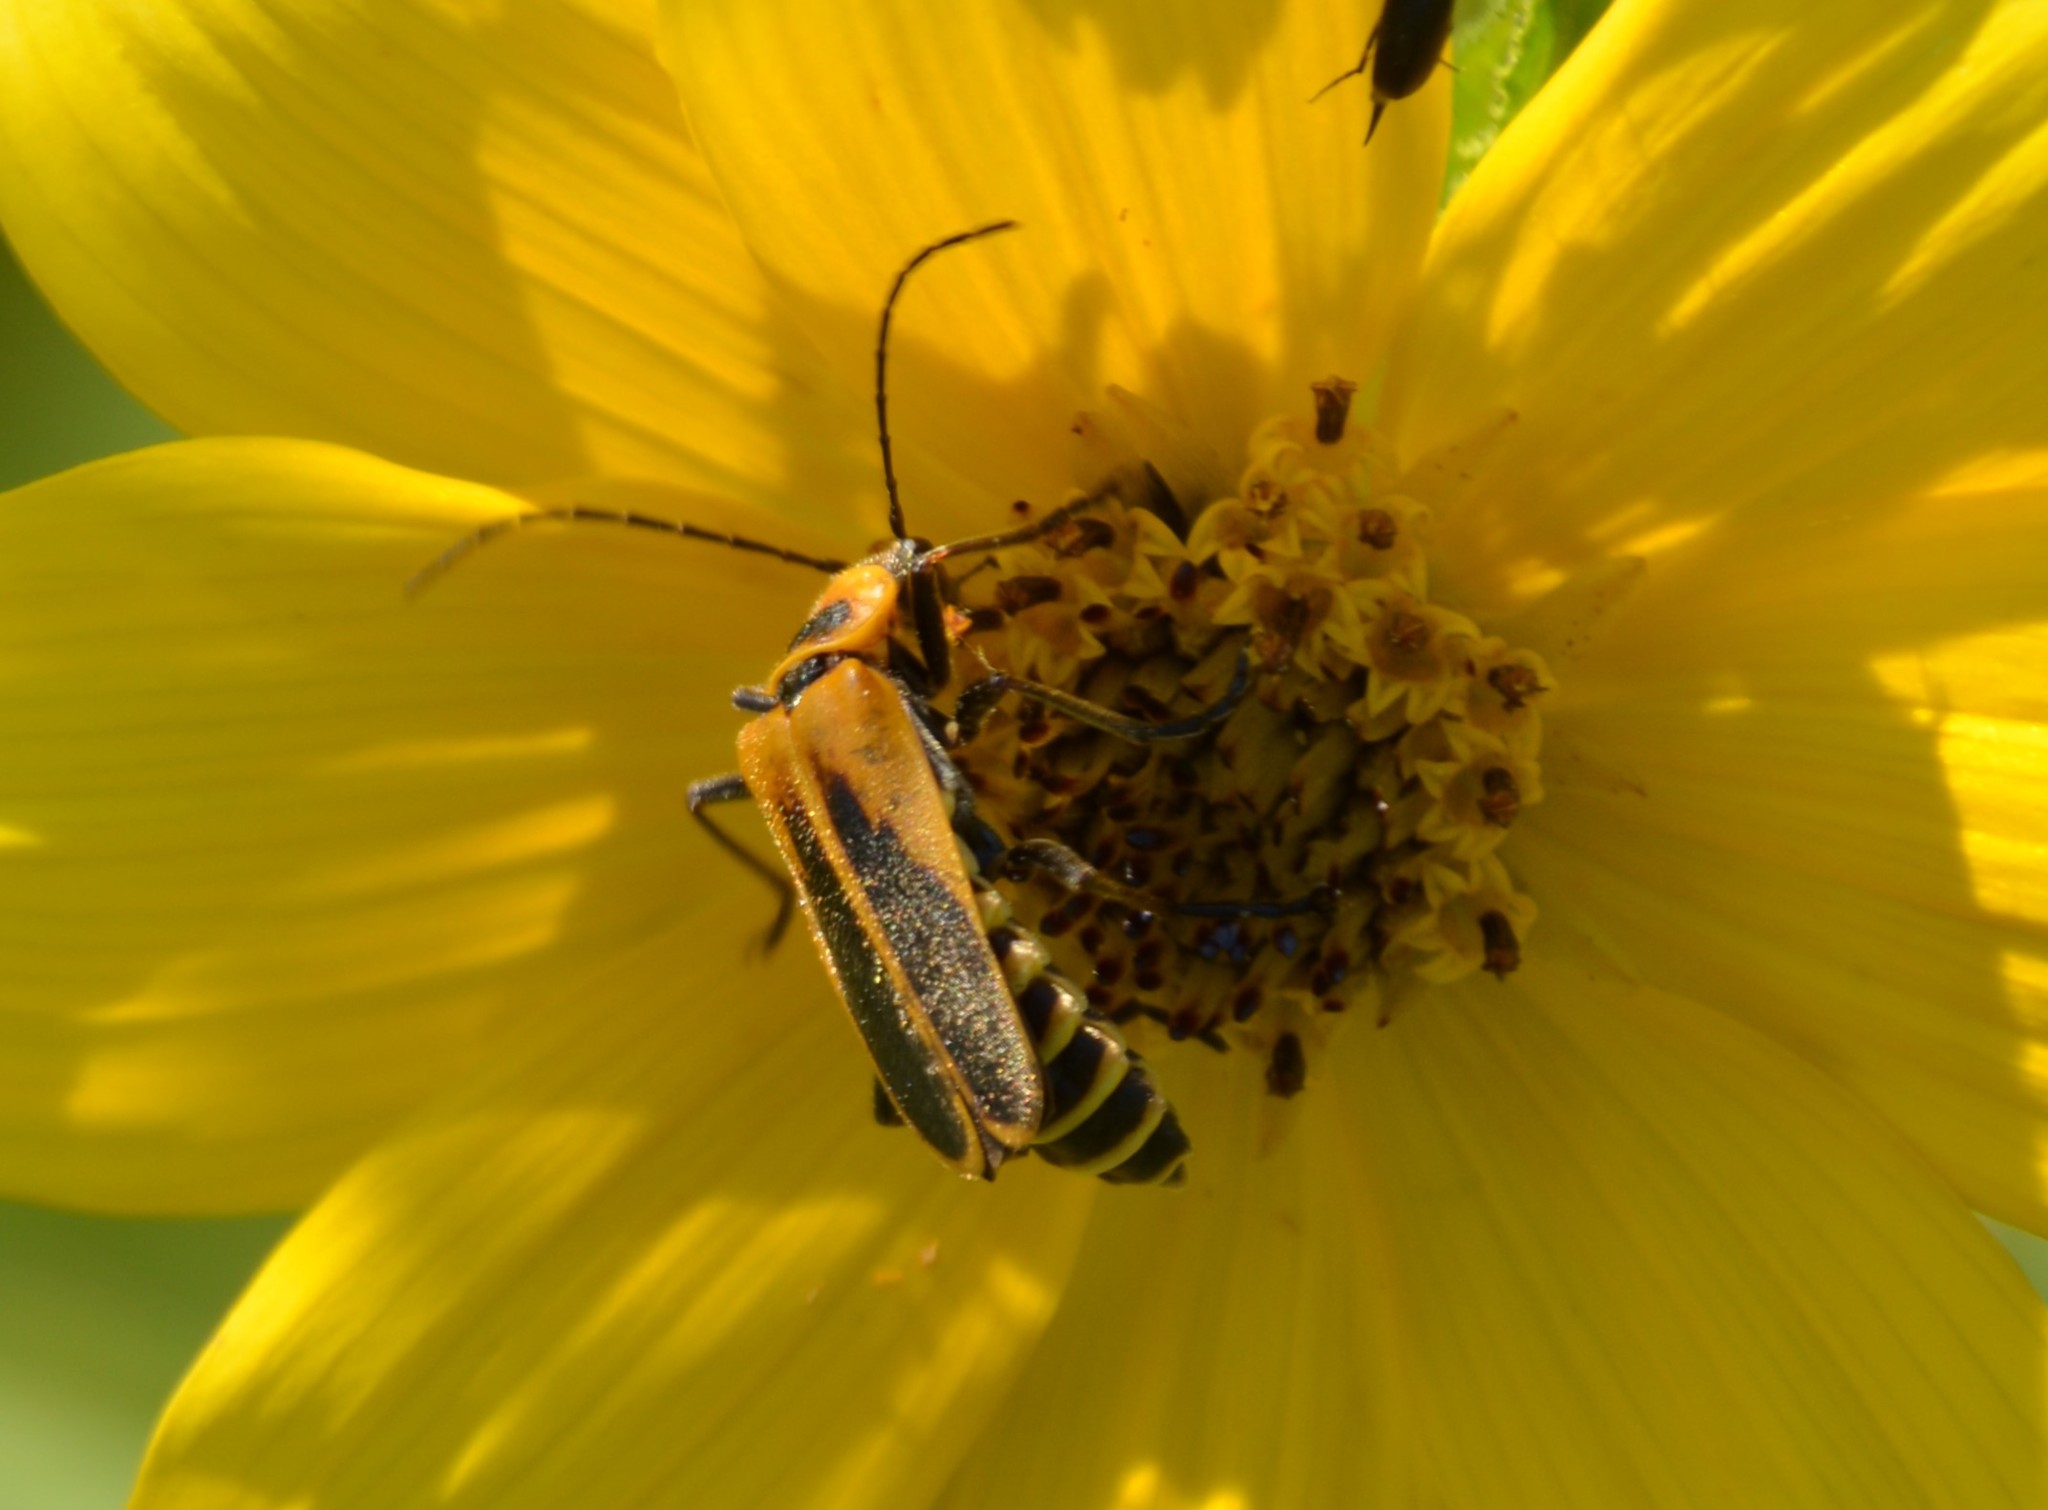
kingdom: Animalia
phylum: Arthropoda
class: Insecta
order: Coleoptera
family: Cantharidae
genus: Chauliognathus
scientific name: Chauliognathus pensylvanicus
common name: Goldenrod soldier beetle
